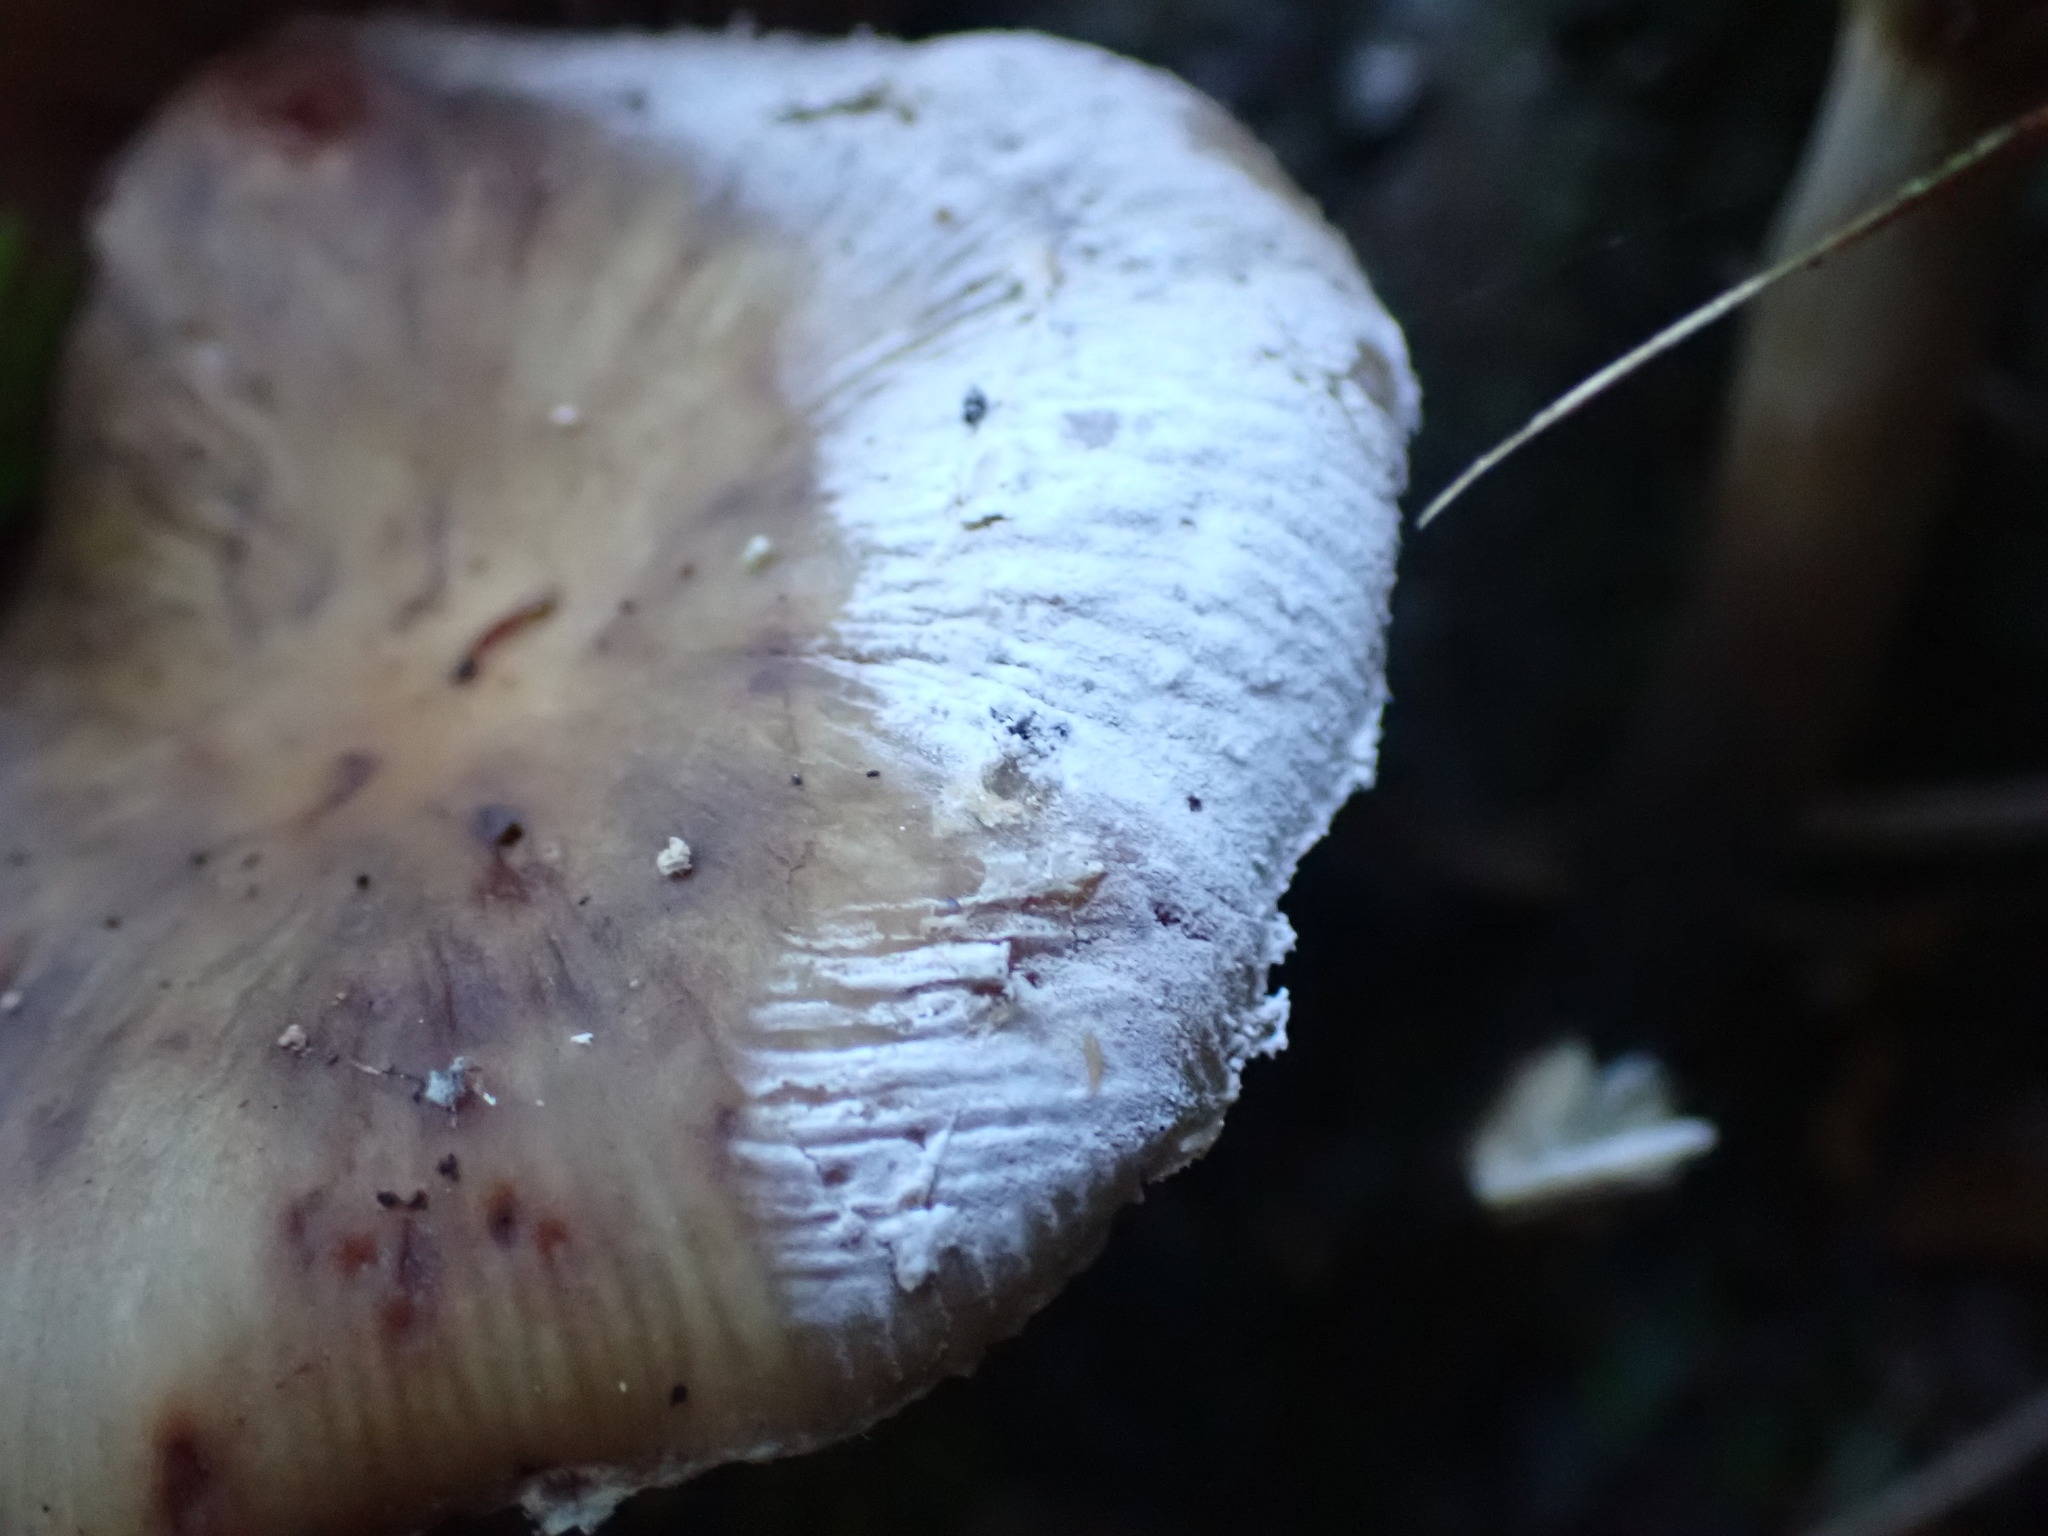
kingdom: Fungi
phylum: Basidiomycota
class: Agaricomycetes
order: Agaricales
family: Physalacriaceae
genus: Armillaria
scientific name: Armillaria novae-zelandiae
